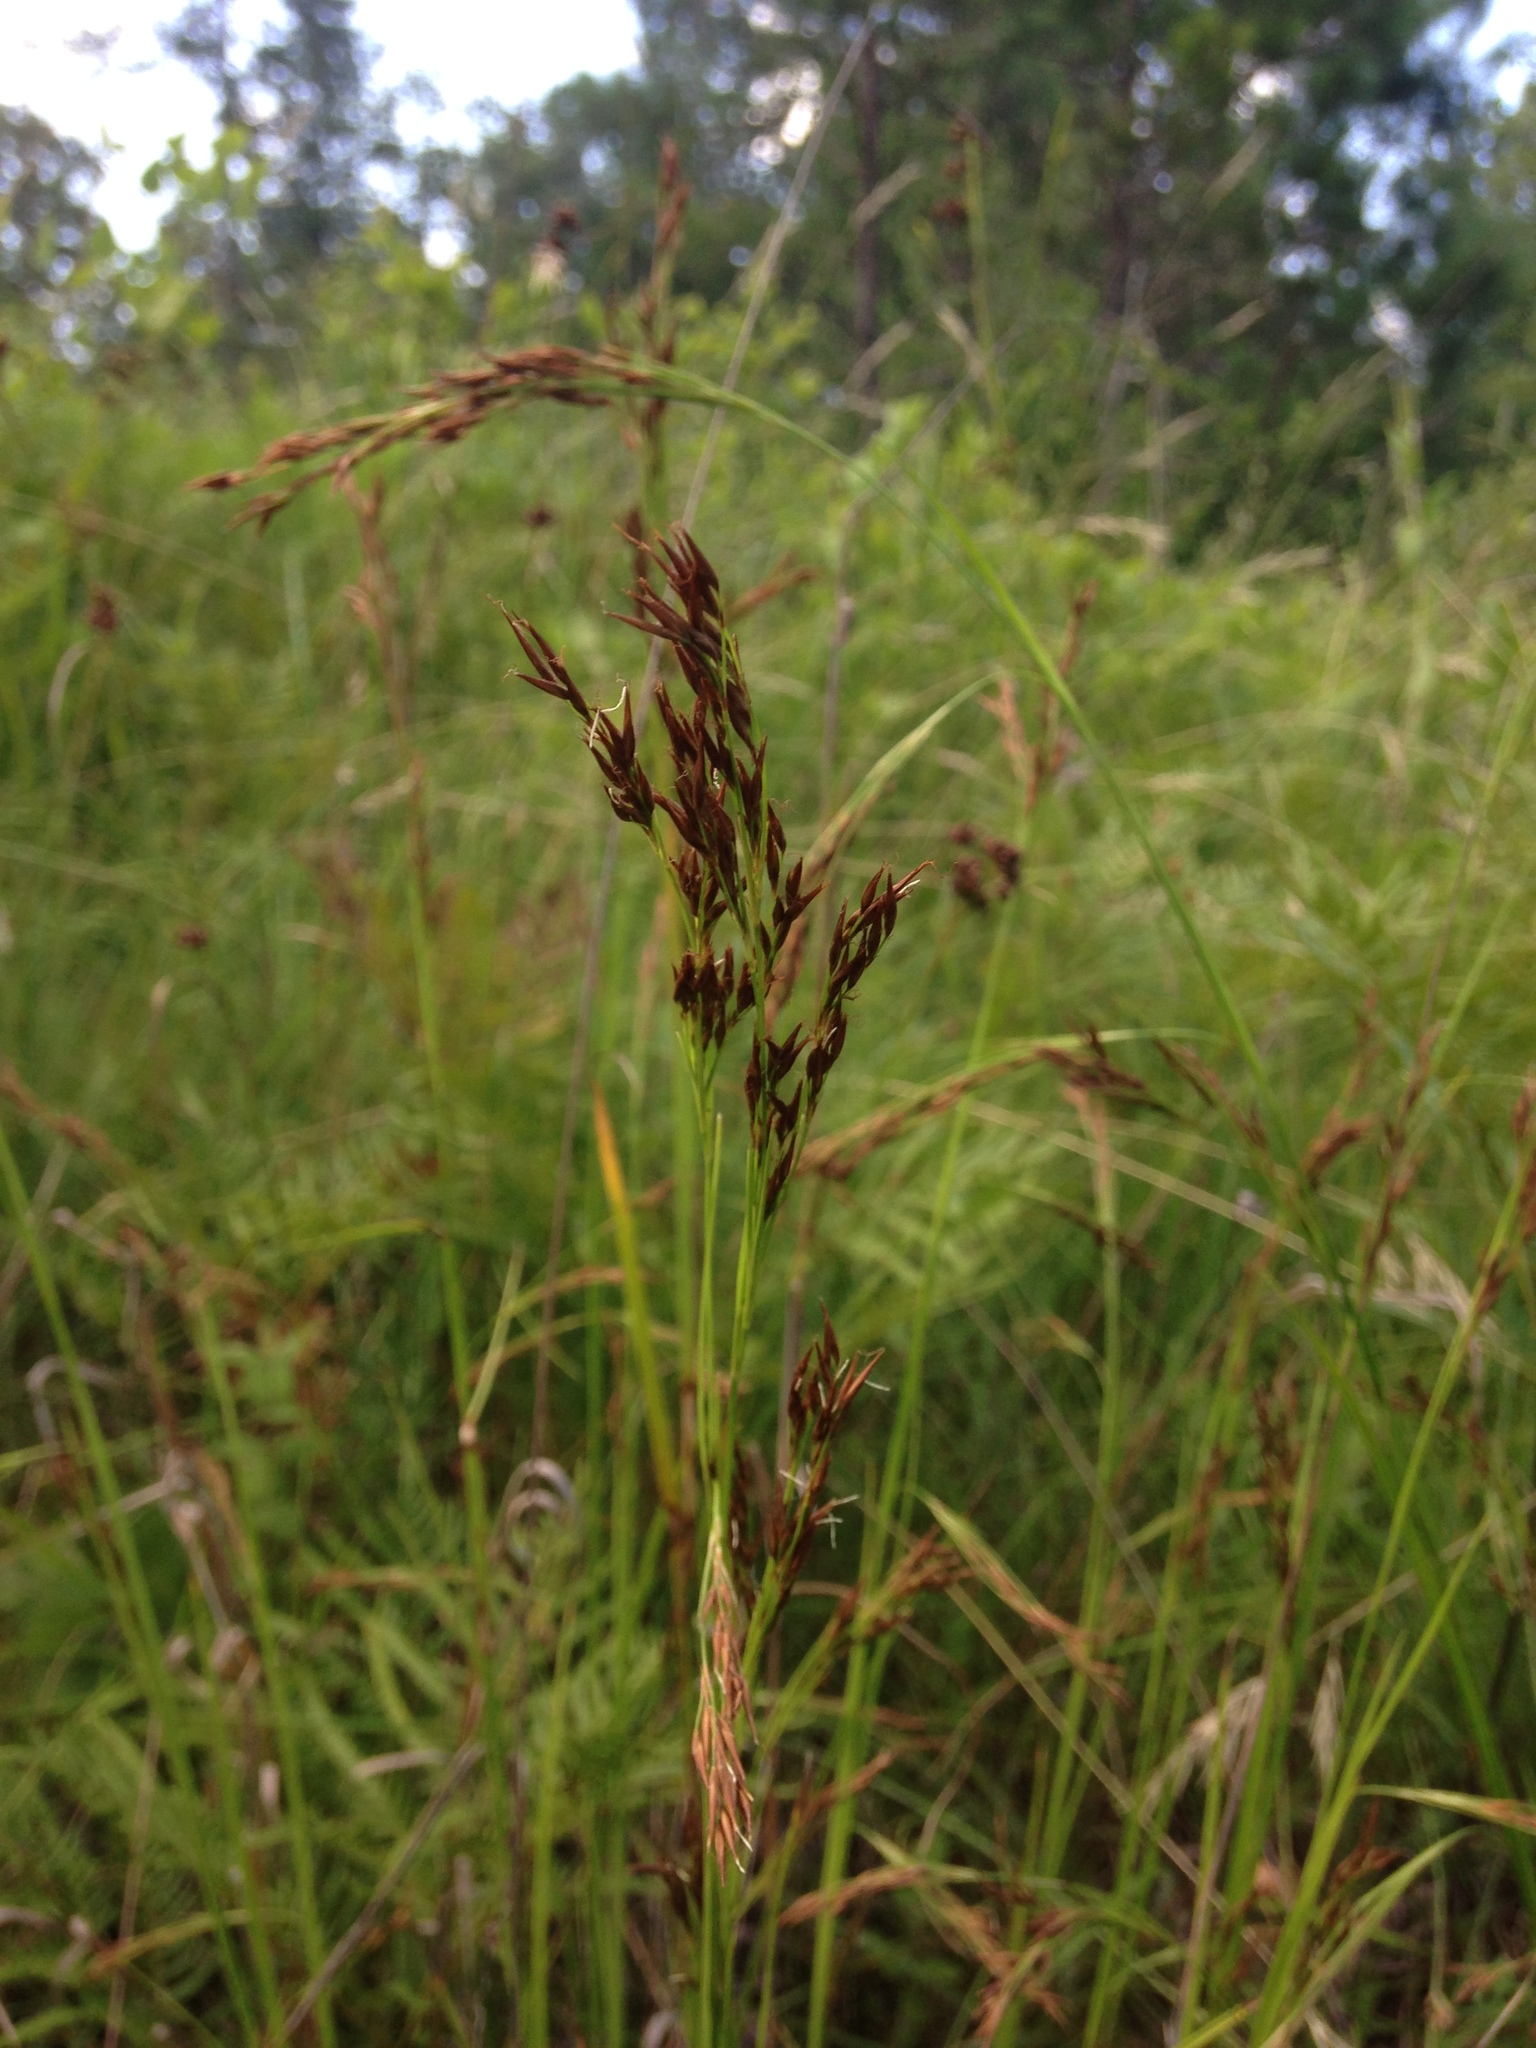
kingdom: Plantae
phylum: Tracheophyta
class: Liliopsida
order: Poales
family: Cyperaceae
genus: Rhynchospora
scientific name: Rhynchospora inexpansa
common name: Nodding beaksedge
